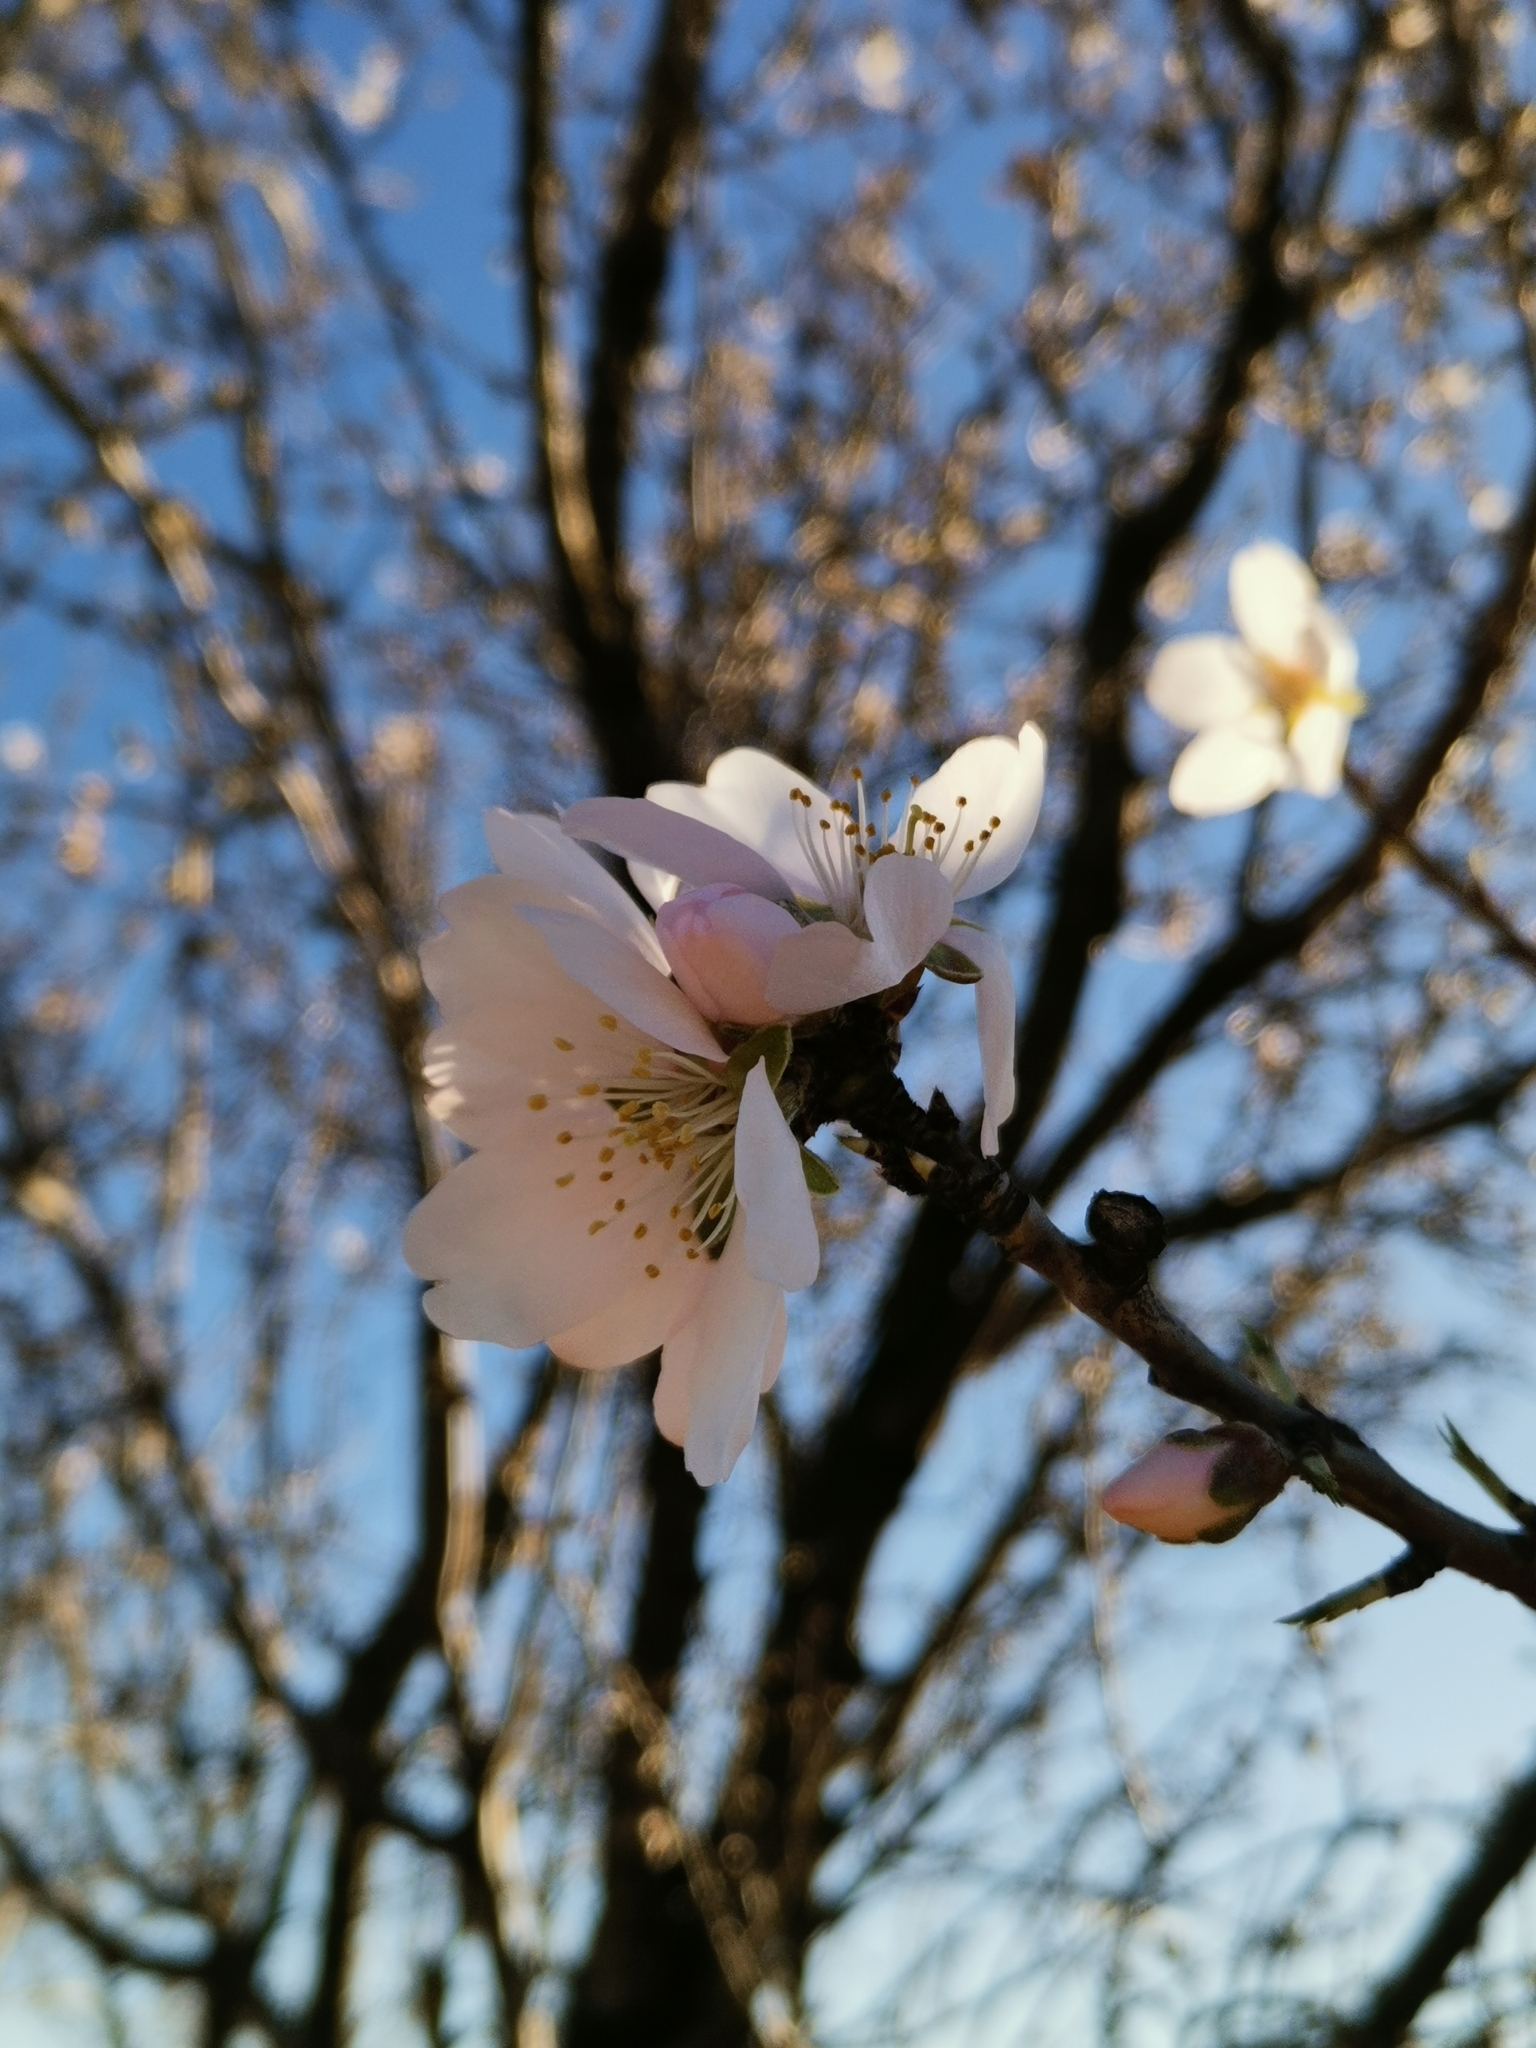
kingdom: Plantae
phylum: Tracheophyta
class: Magnoliopsida
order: Rosales
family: Rosaceae
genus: Prunus
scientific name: Prunus amygdalus
